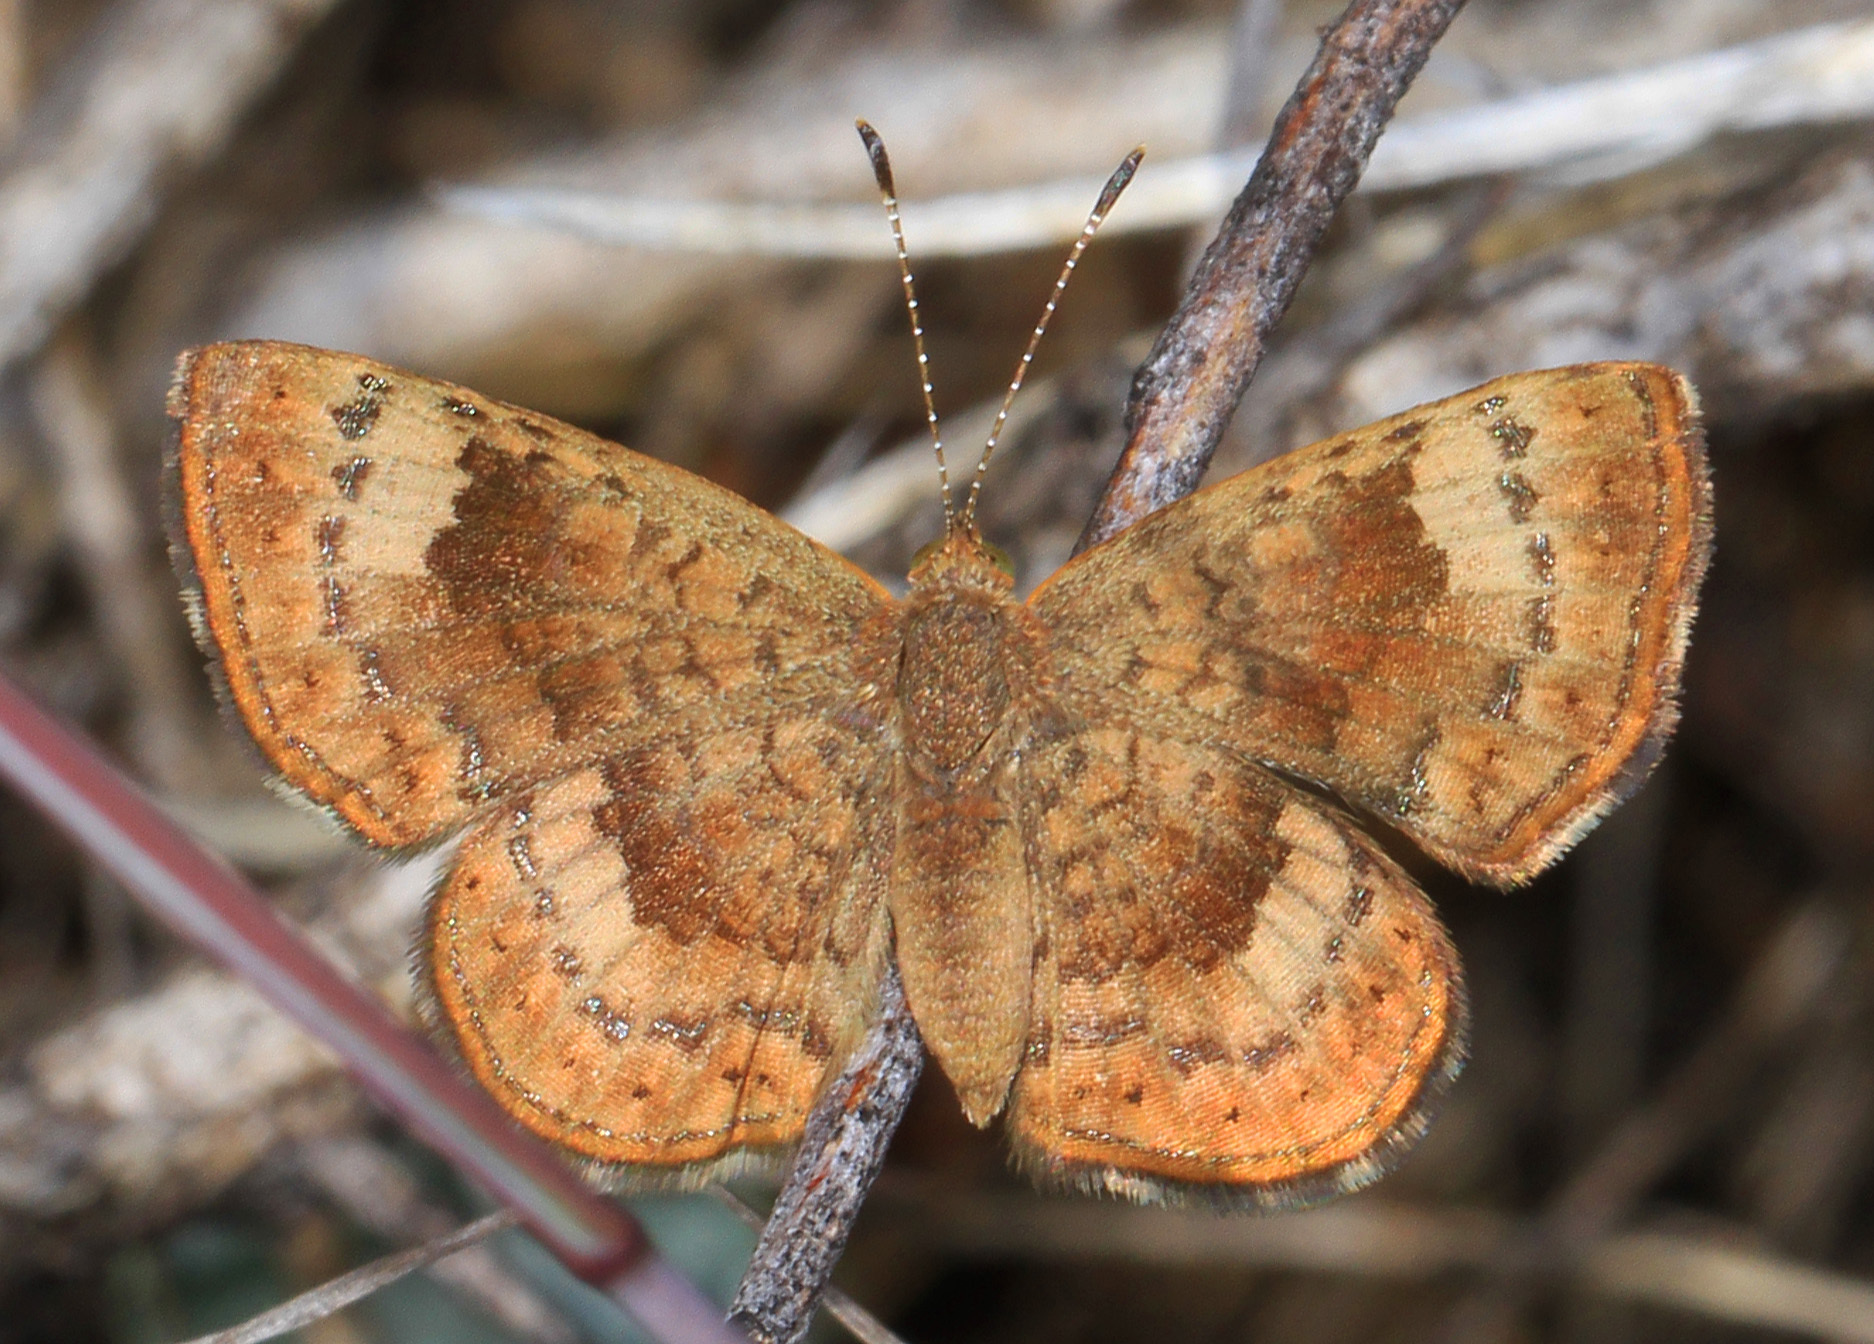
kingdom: Animalia
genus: Calephelis
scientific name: Calephelis nemesis
